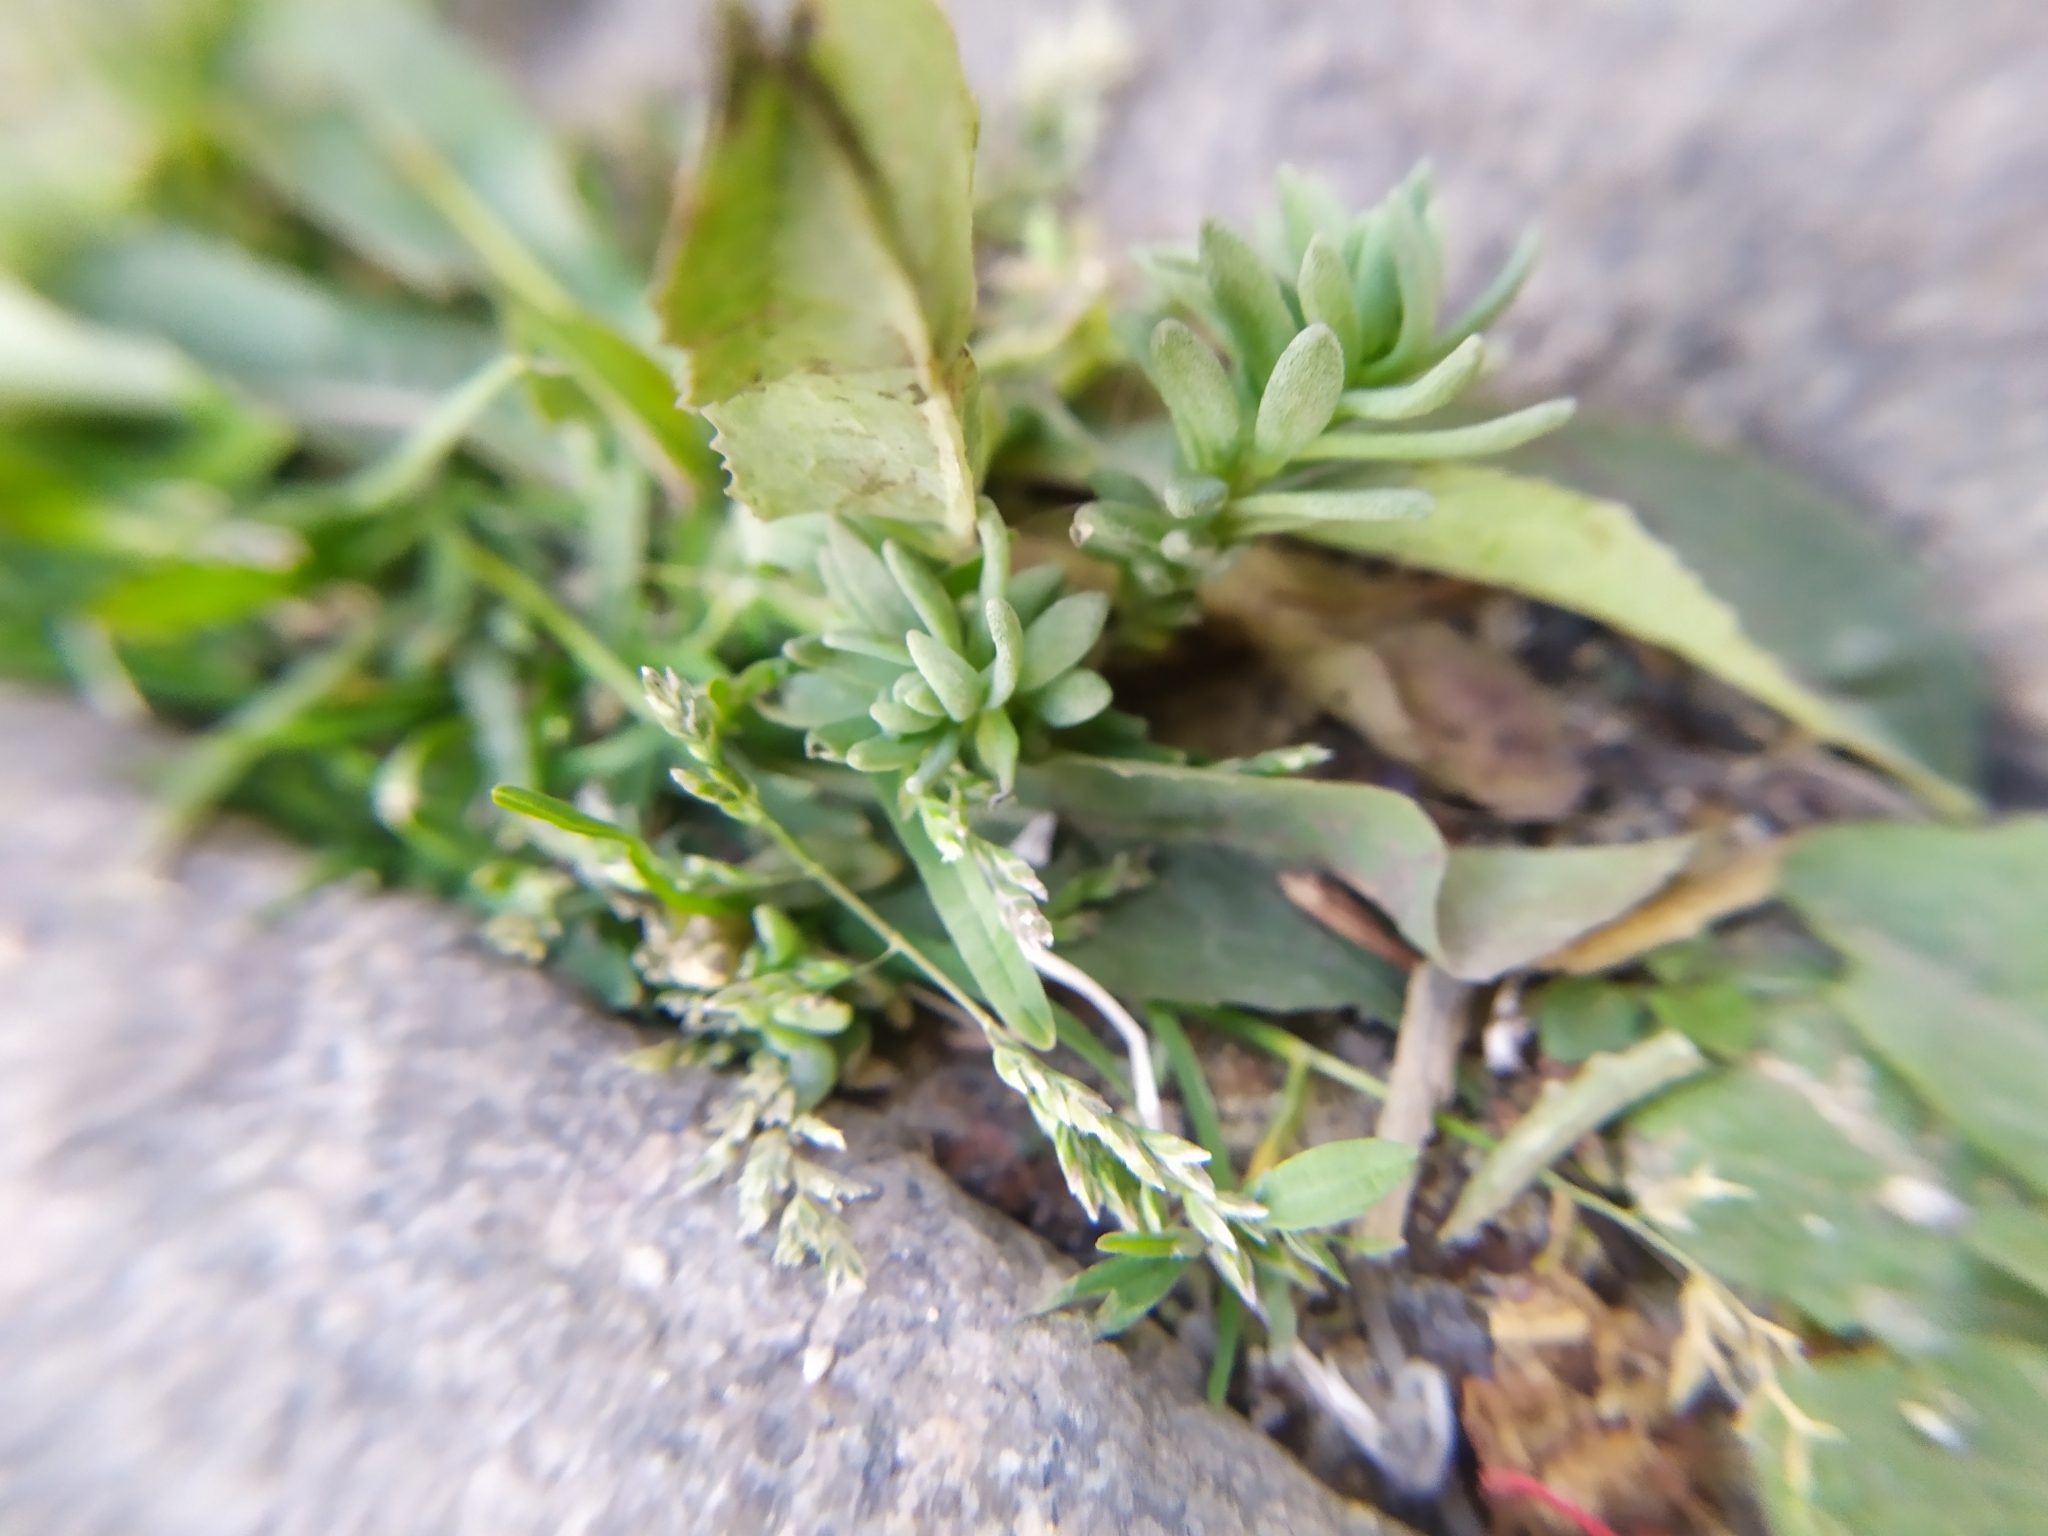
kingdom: Plantae
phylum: Tracheophyta
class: Magnoliopsida
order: Saxifragales
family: Crassulaceae
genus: Sedum
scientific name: Sedum hispanicum
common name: Spanish stonecrop
